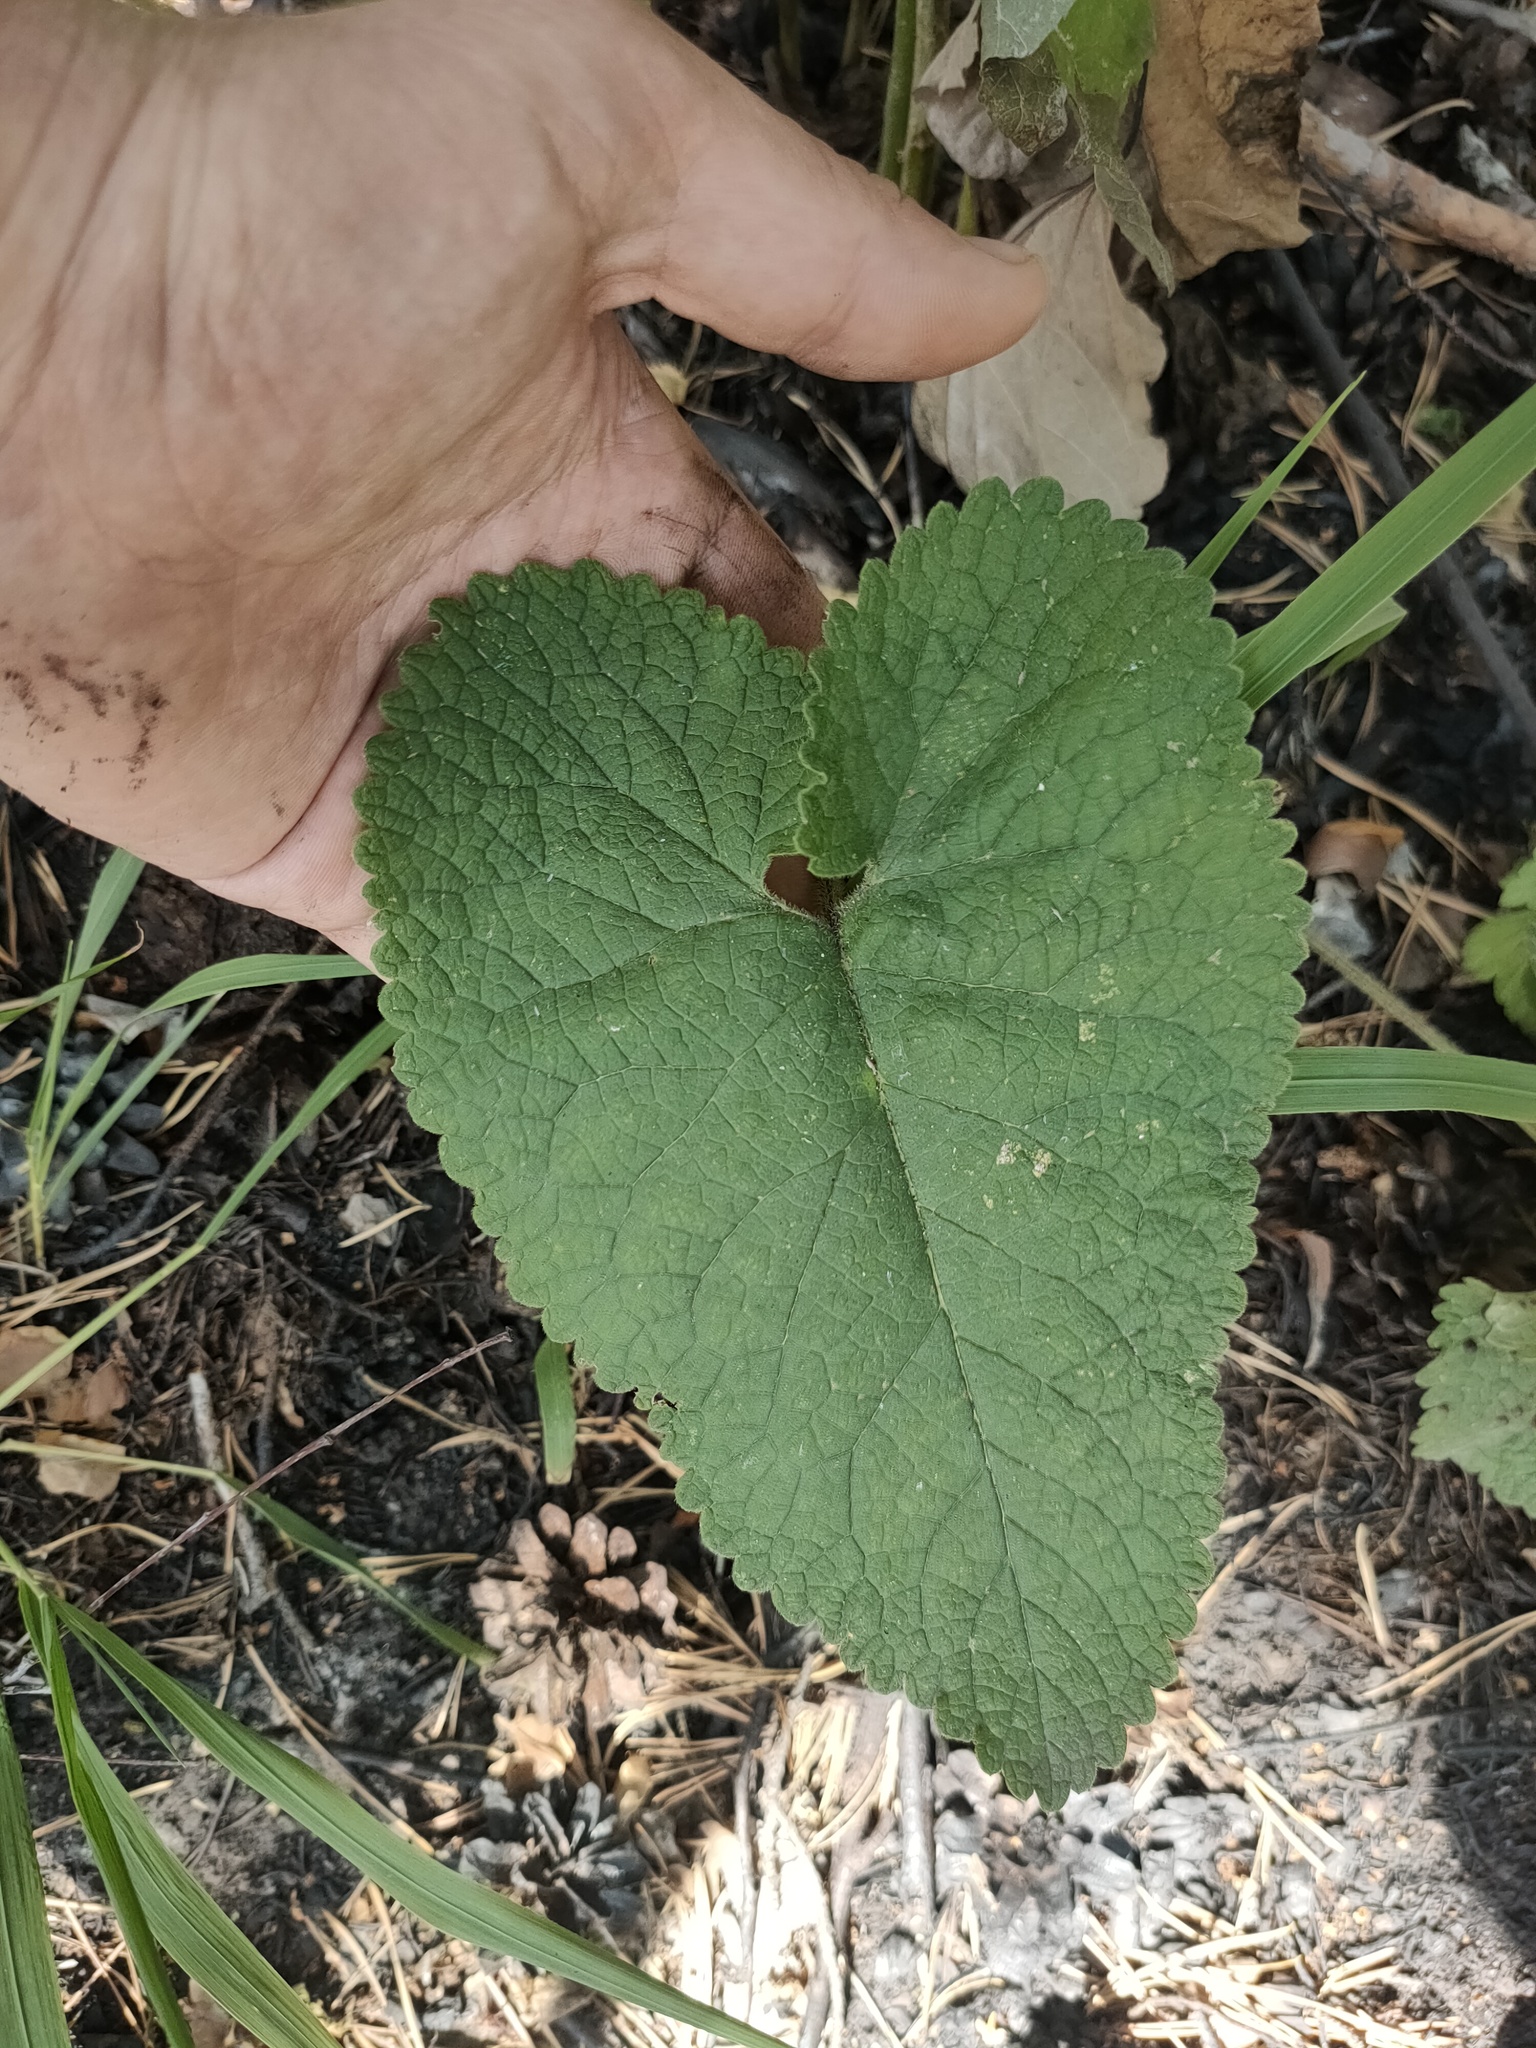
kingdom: Plantae
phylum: Tracheophyta
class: Magnoliopsida
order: Lamiales
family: Lamiaceae
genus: Phlomoides
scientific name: Phlomoides tuberosa
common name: Tuberous jerusalem sage
